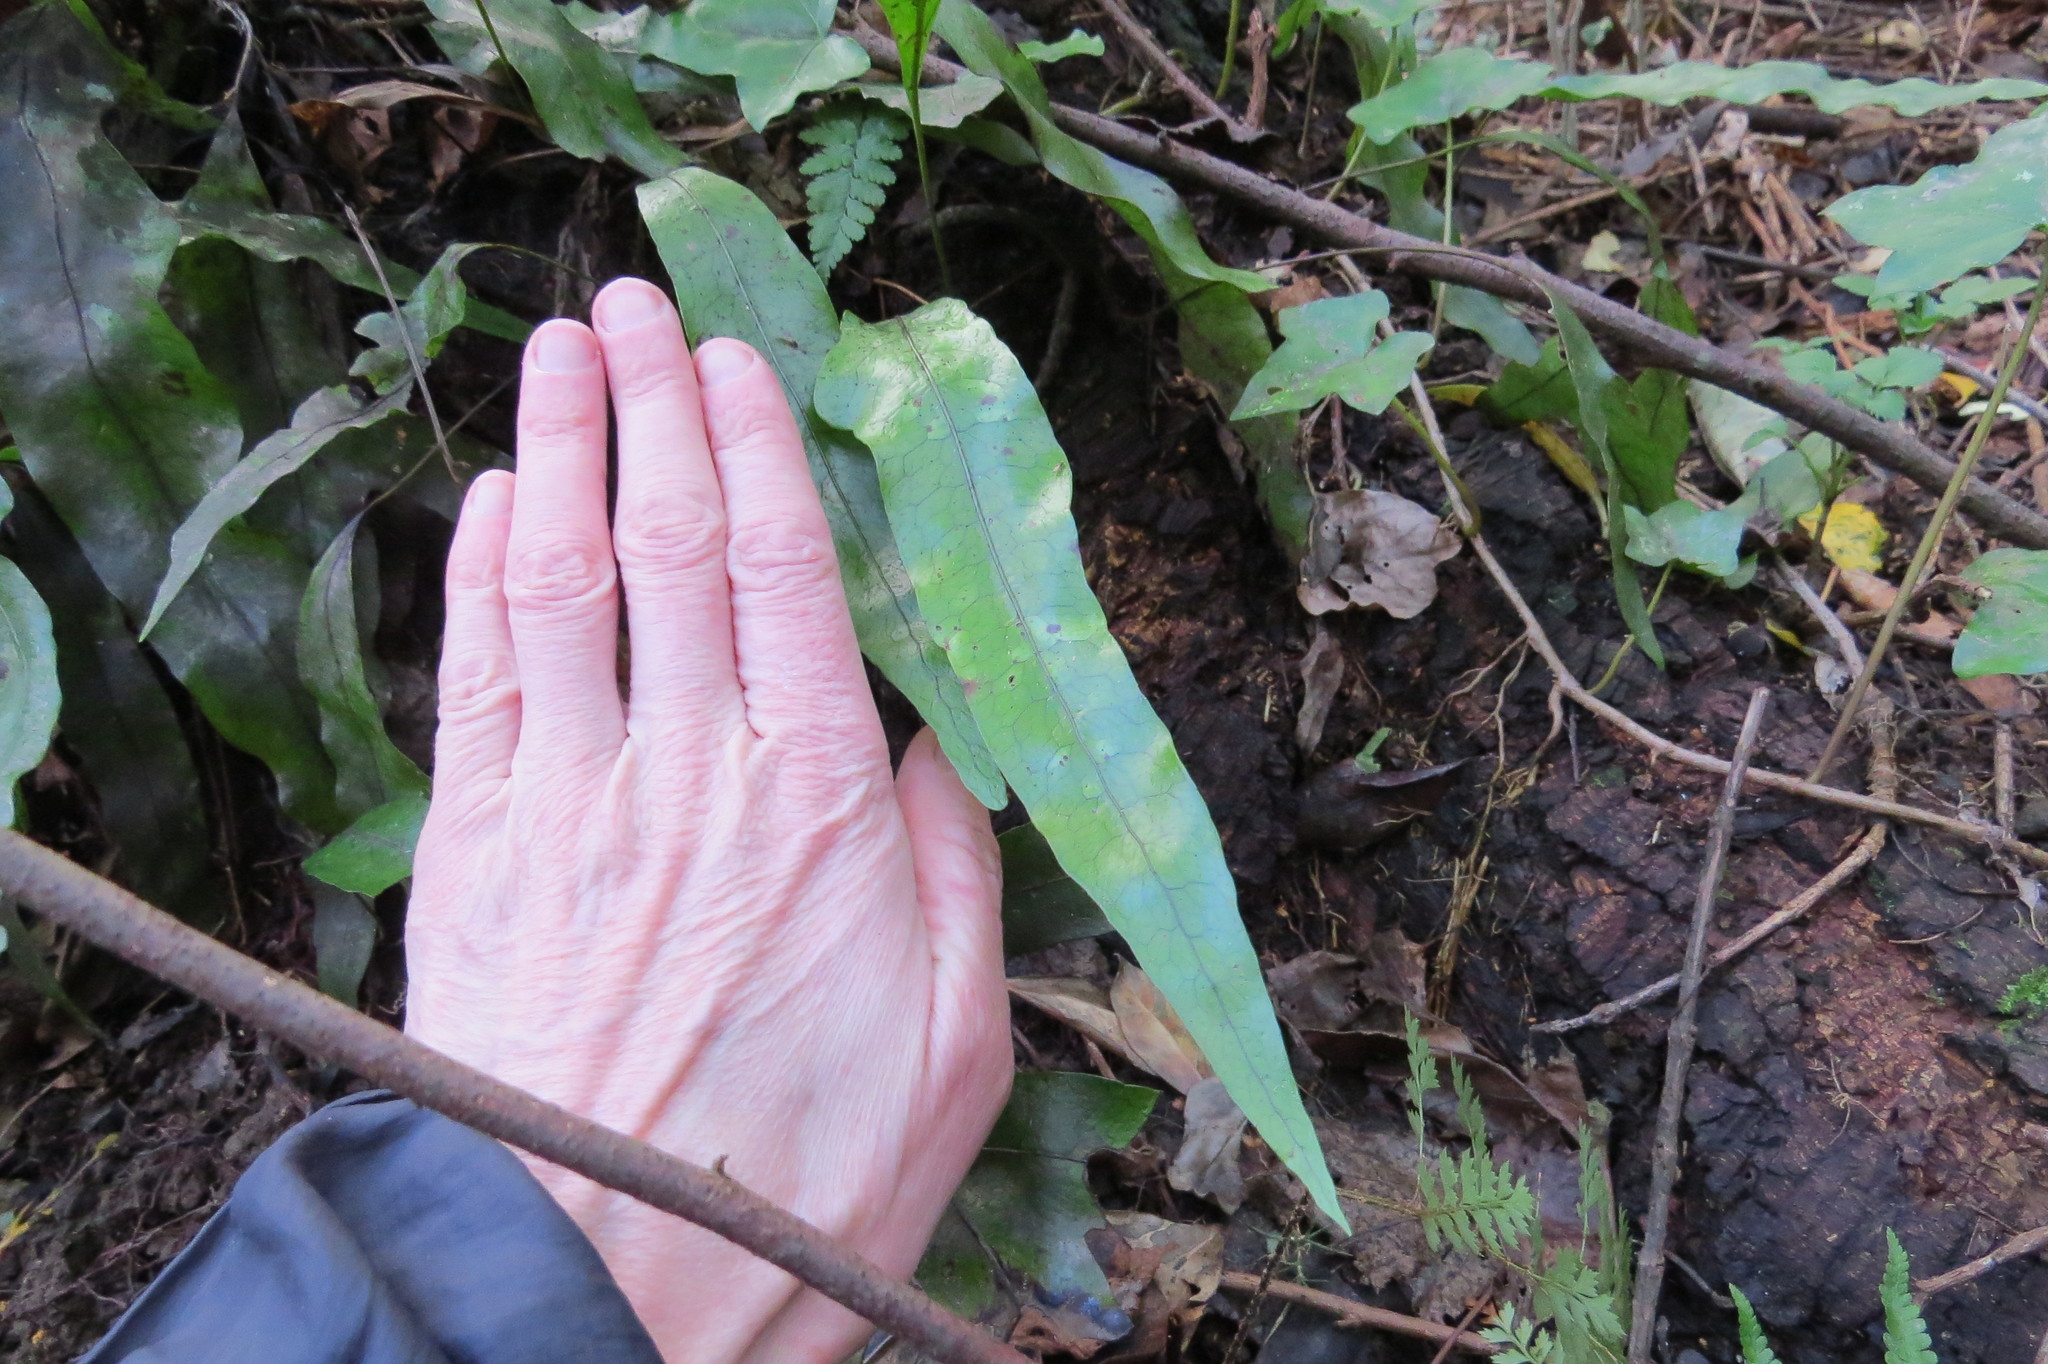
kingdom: Plantae
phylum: Tracheophyta
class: Polypodiopsida
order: Polypodiales
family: Polypodiaceae
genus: Lecanopteris
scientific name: Lecanopteris pustulata
